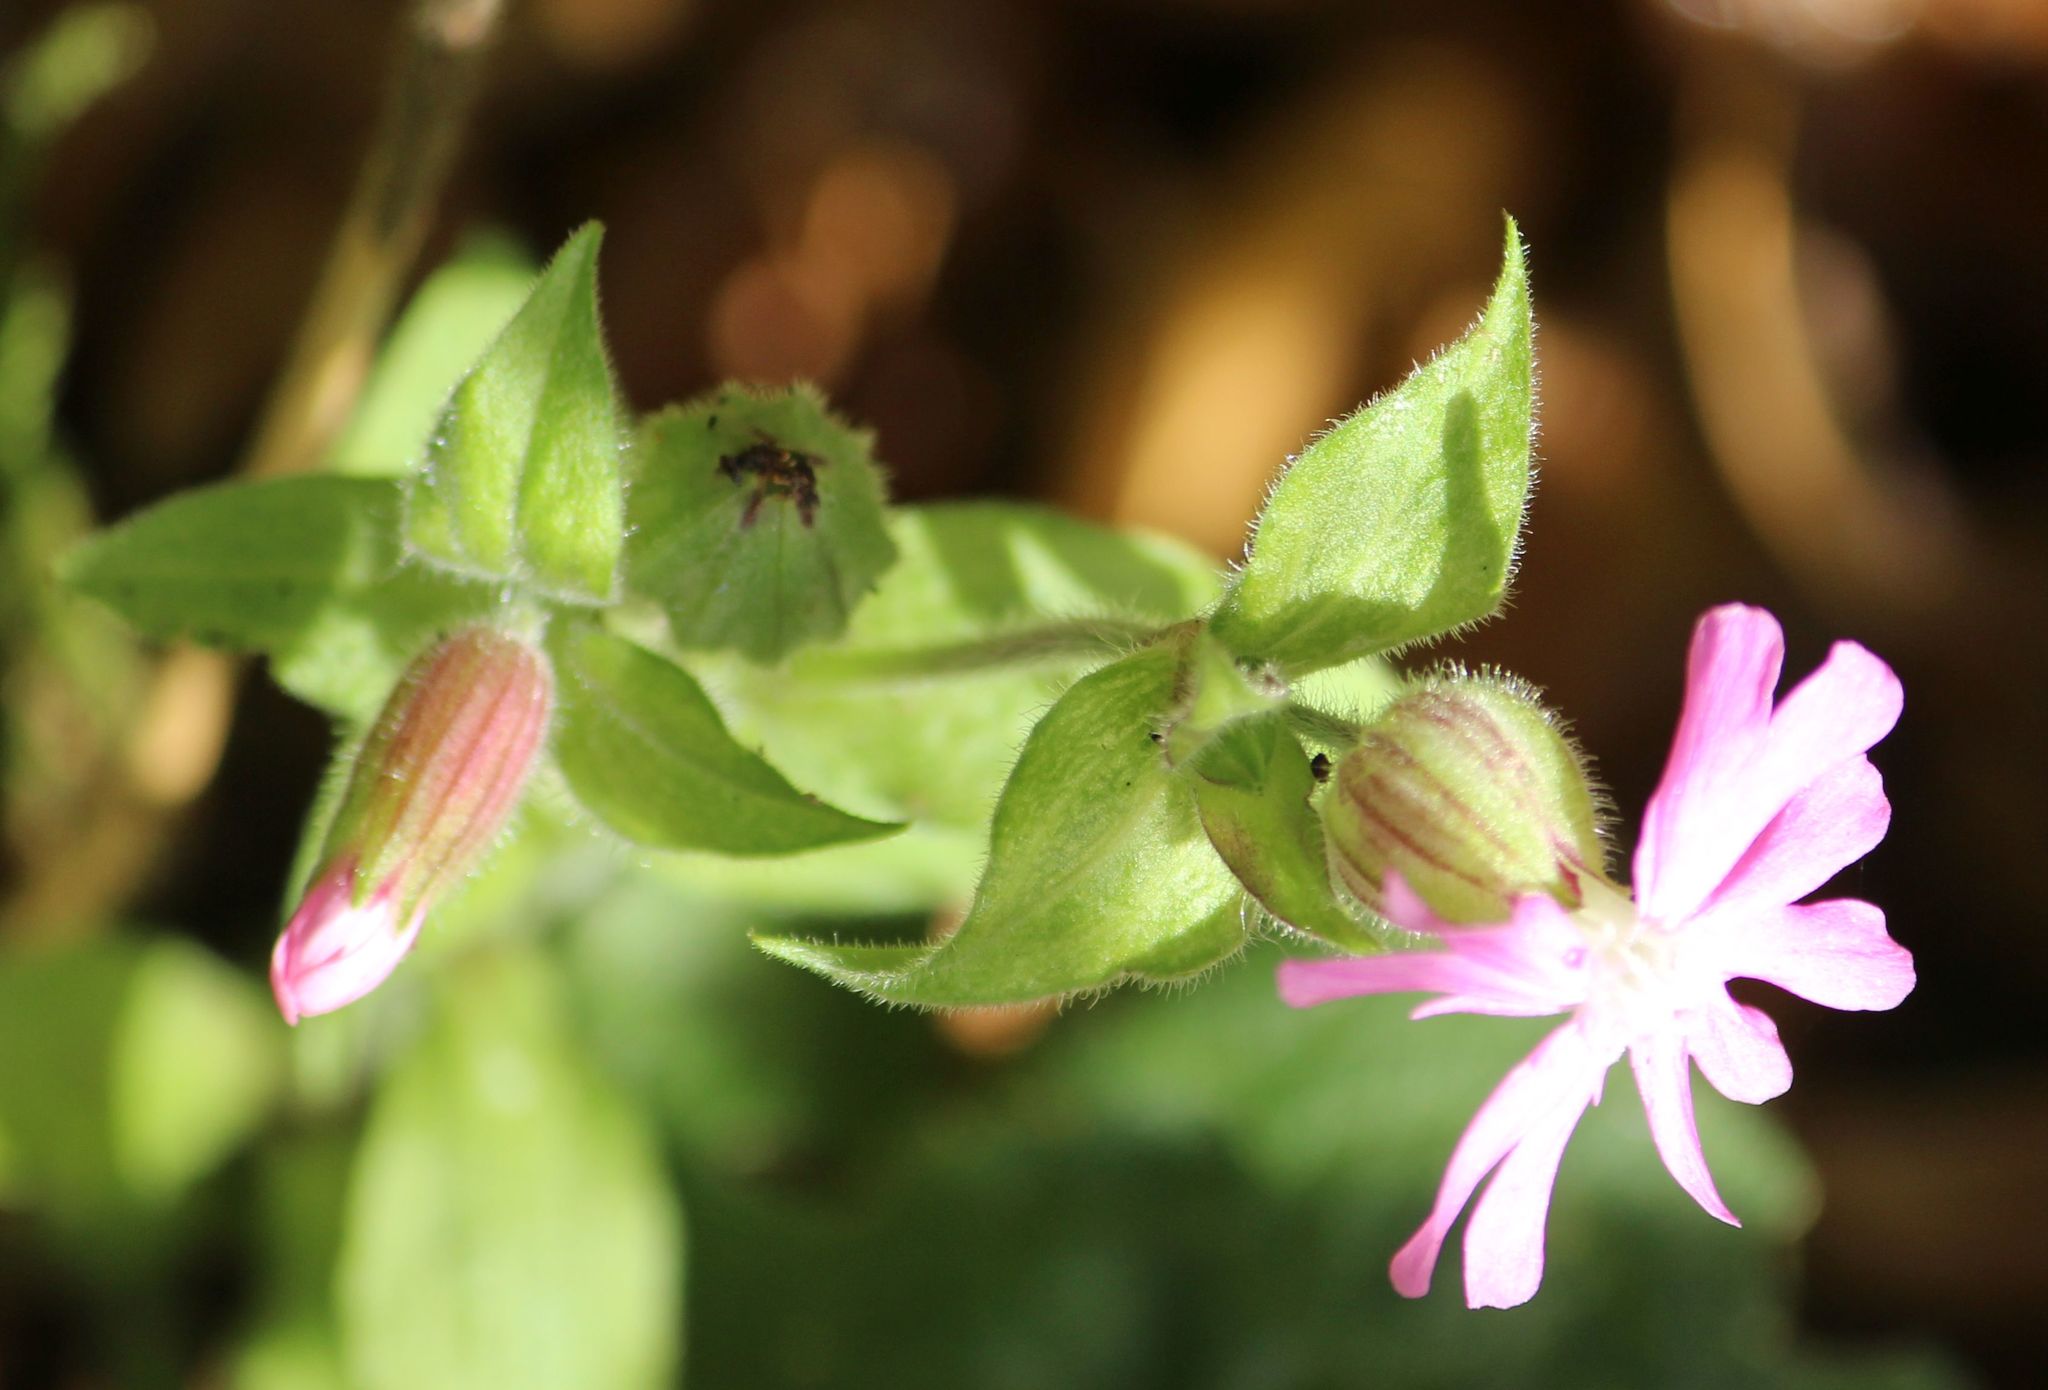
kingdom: Plantae
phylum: Tracheophyta
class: Magnoliopsida
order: Caryophyllales
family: Caryophyllaceae
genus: Silene
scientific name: Silene dioica
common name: Red campion
